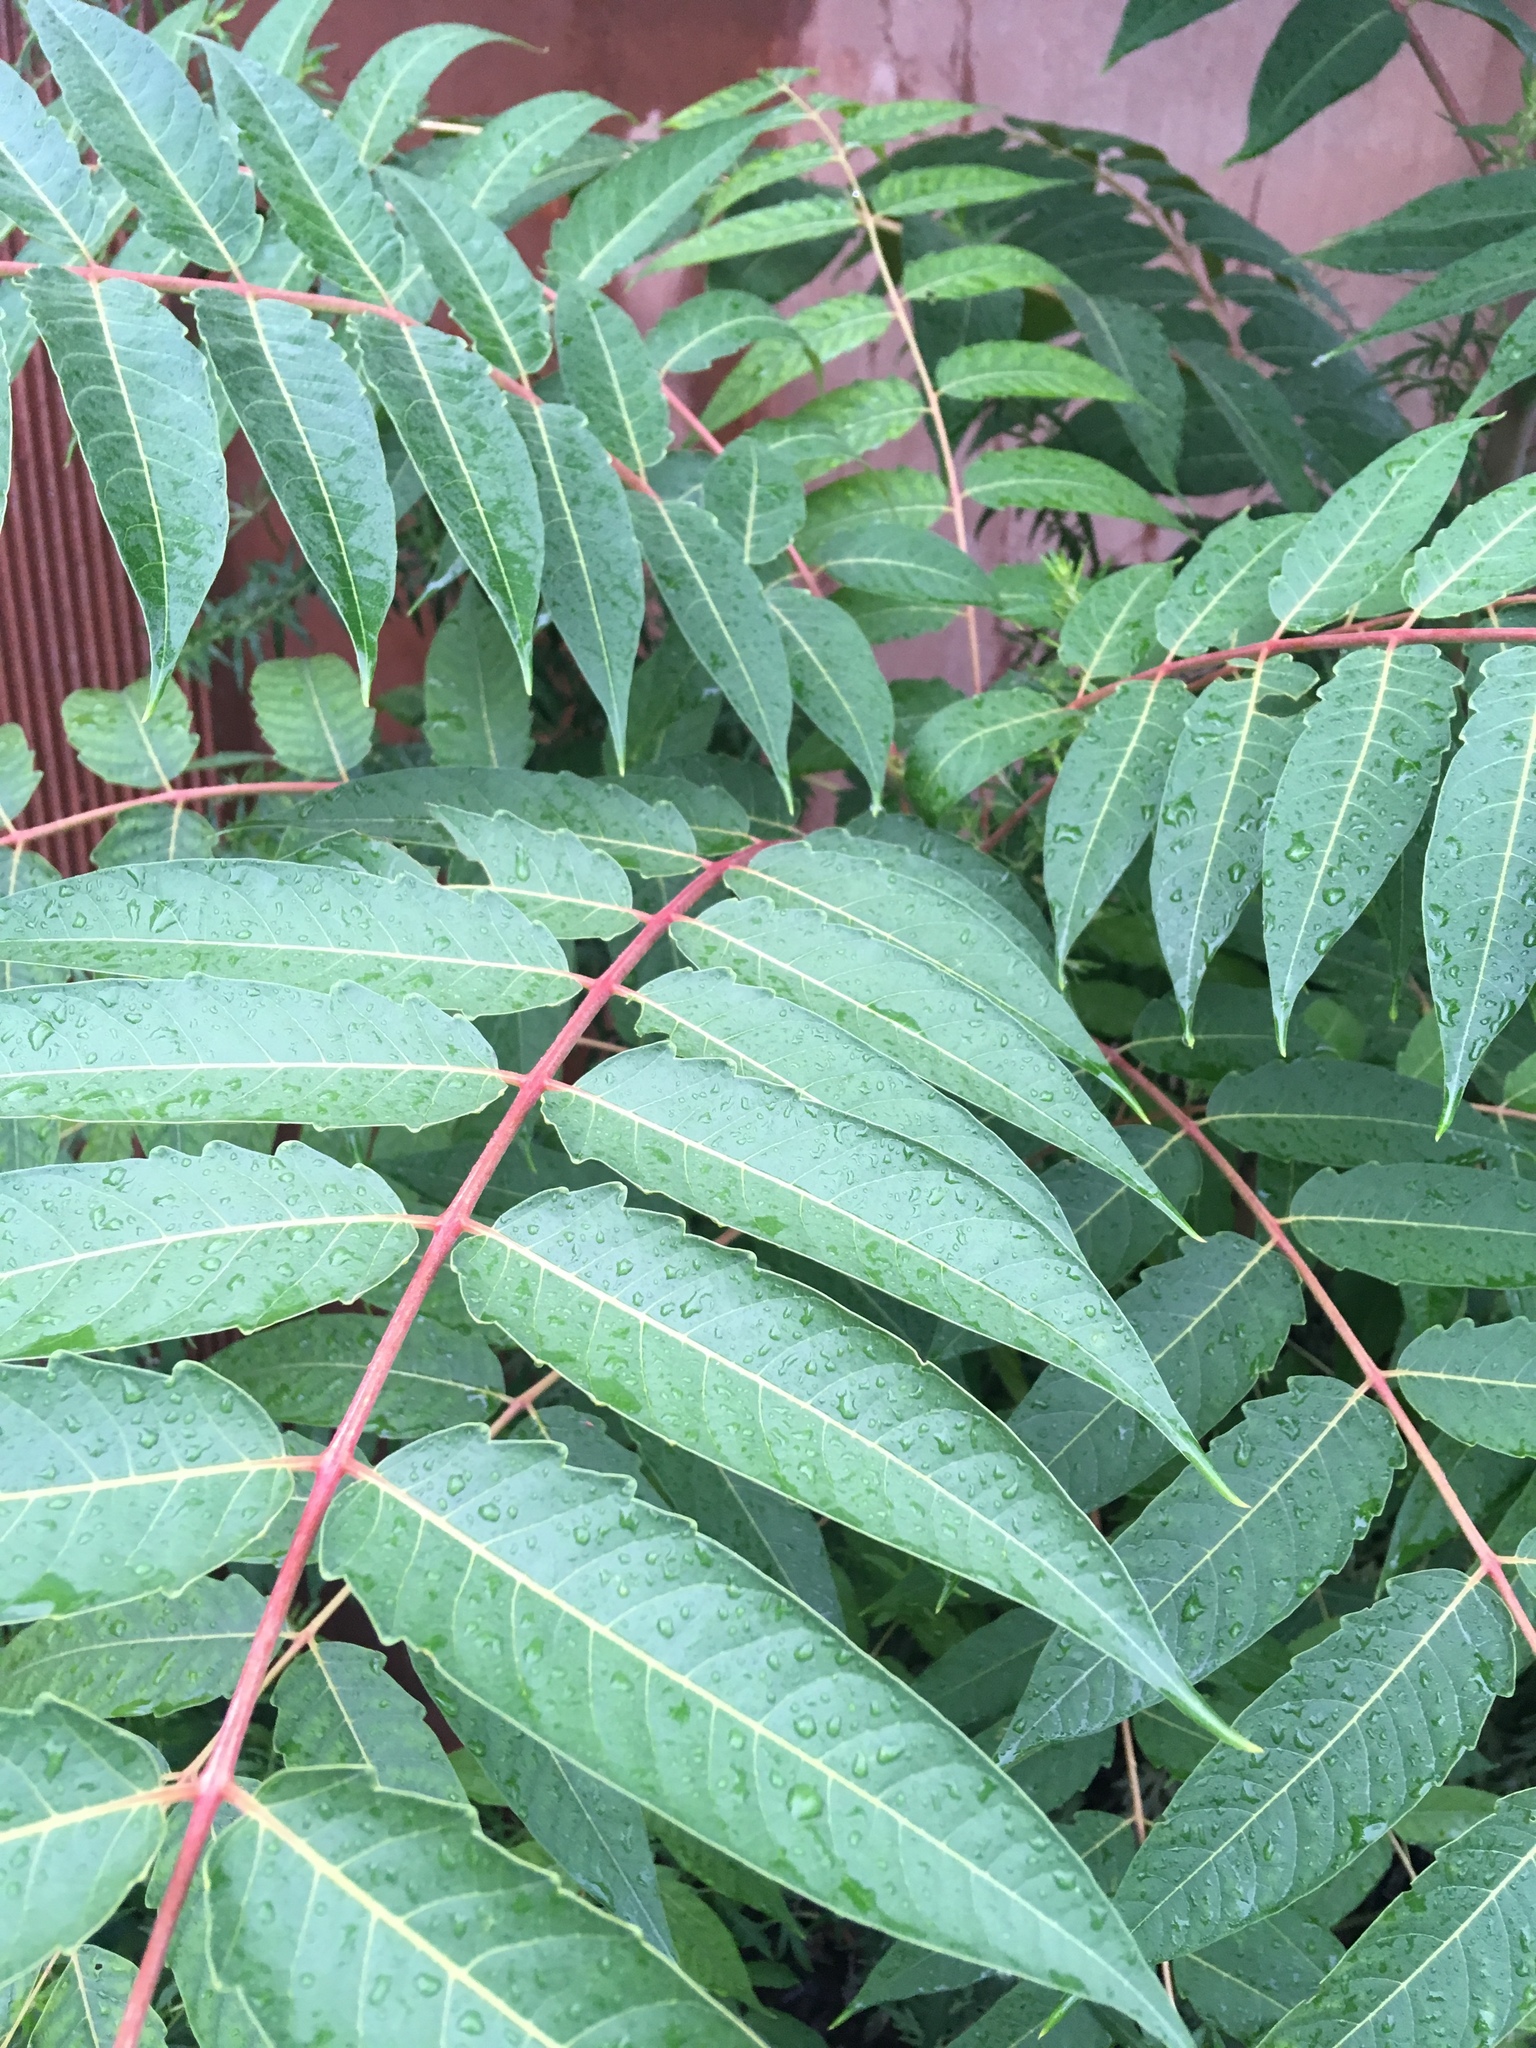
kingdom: Plantae
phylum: Tracheophyta
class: Magnoliopsida
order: Sapindales
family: Simaroubaceae
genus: Ailanthus
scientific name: Ailanthus altissima
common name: Tree-of-heaven
